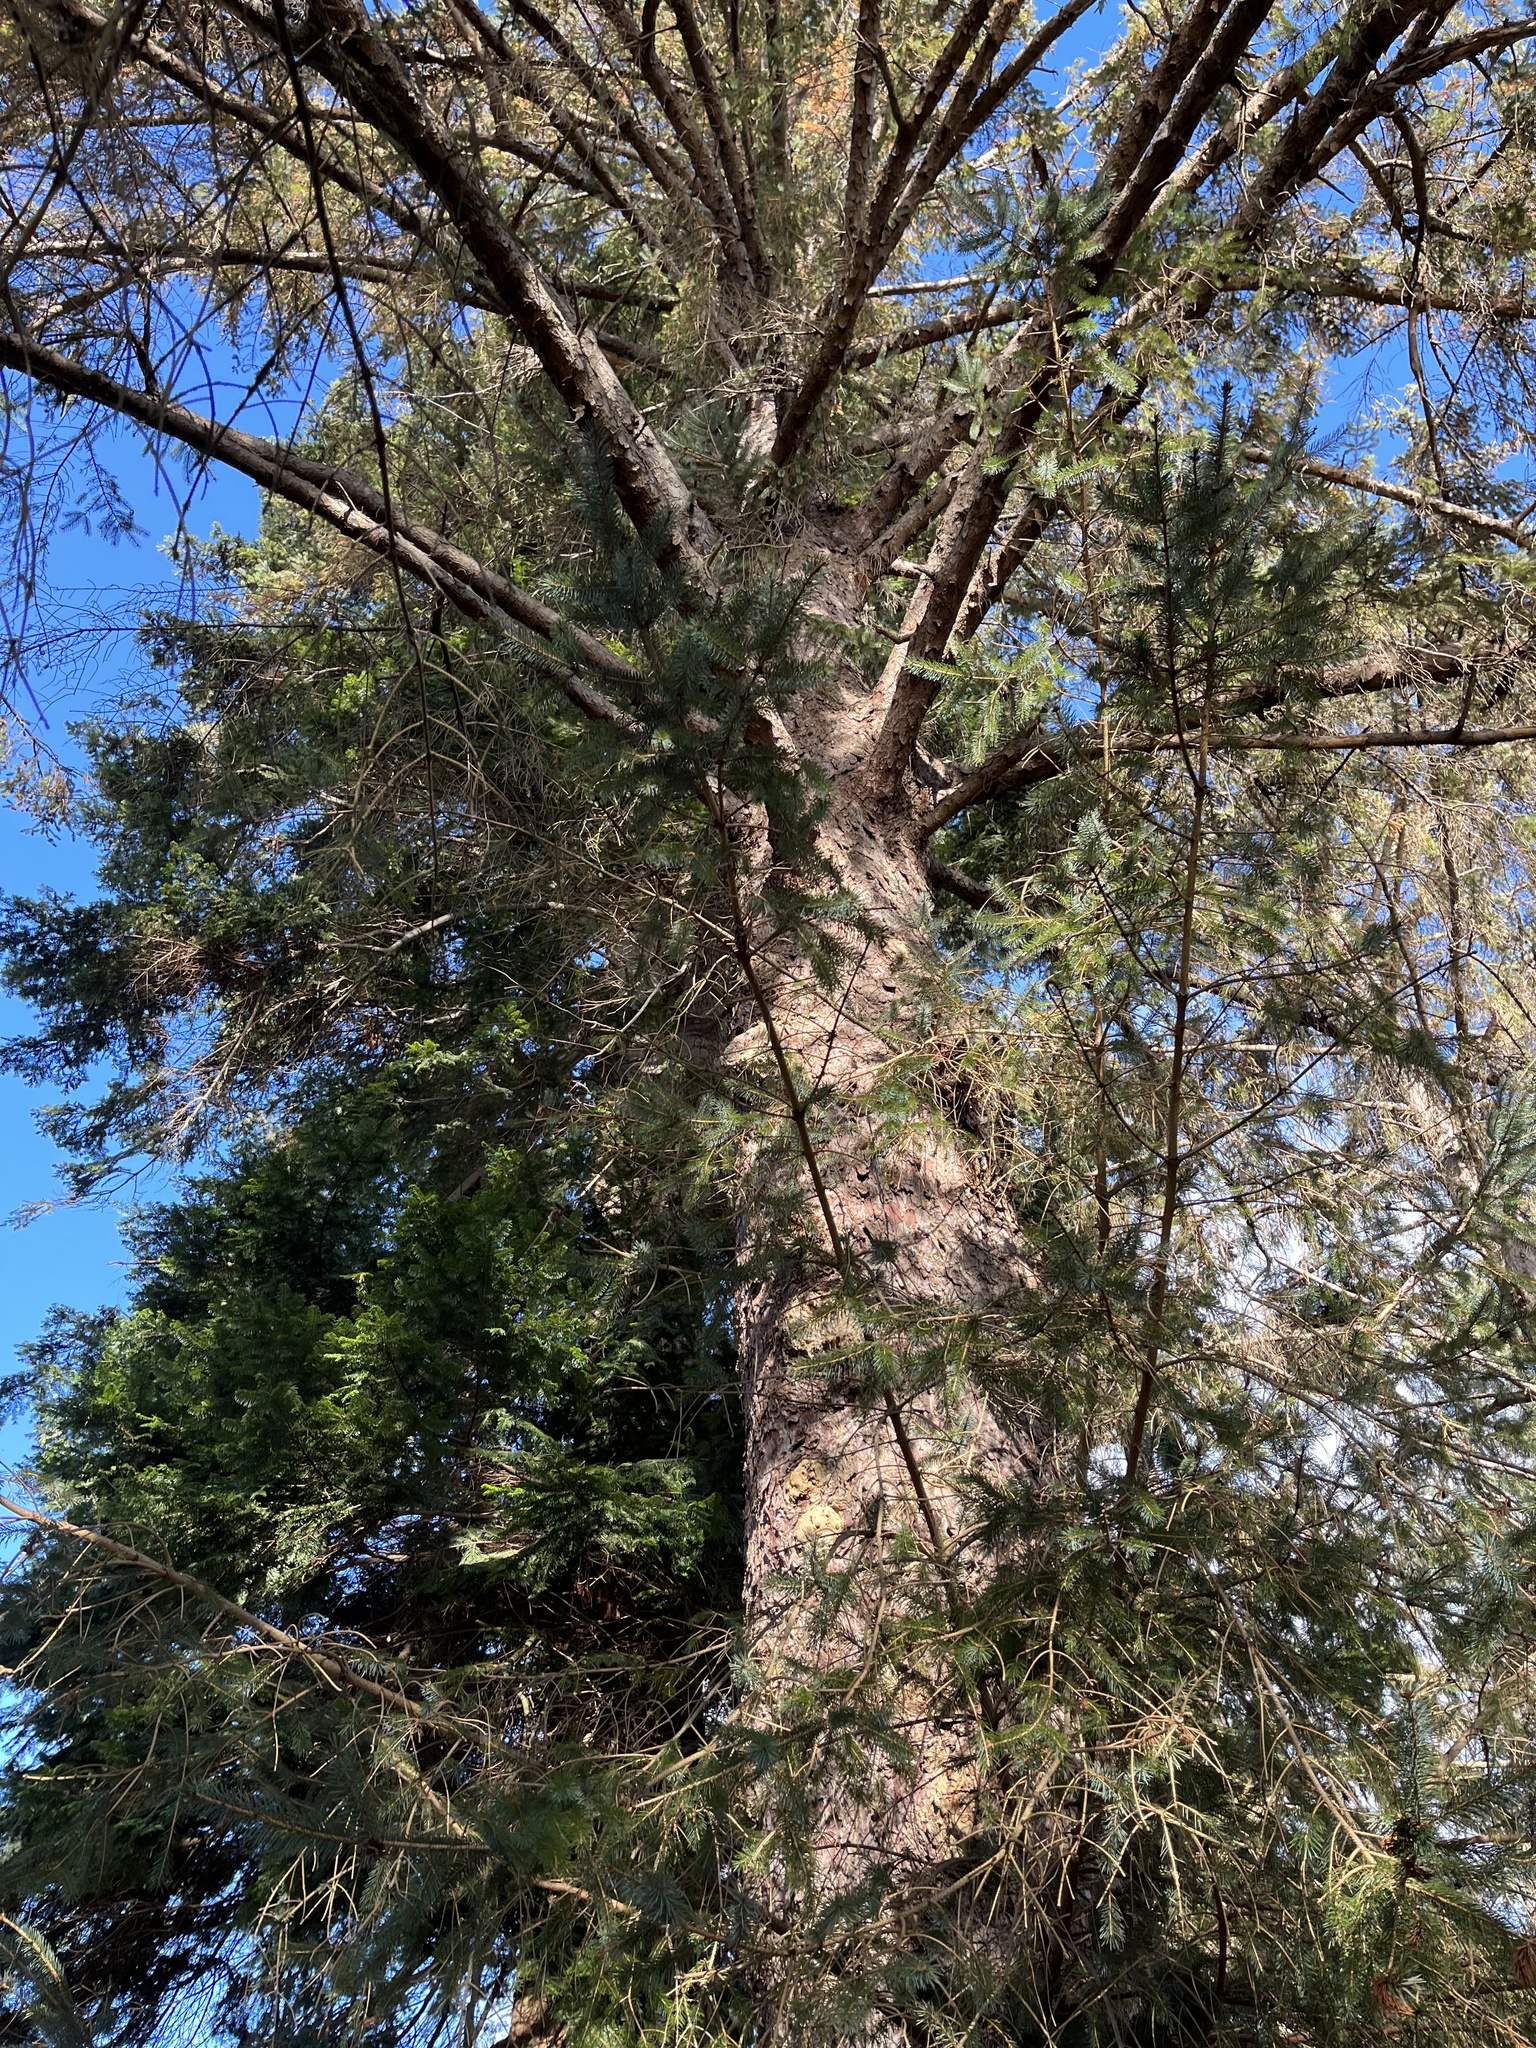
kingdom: Plantae
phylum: Tracheophyta
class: Pinopsida
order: Pinales
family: Pinaceae
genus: Picea
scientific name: Picea sitchensis
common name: Sitka spruce
